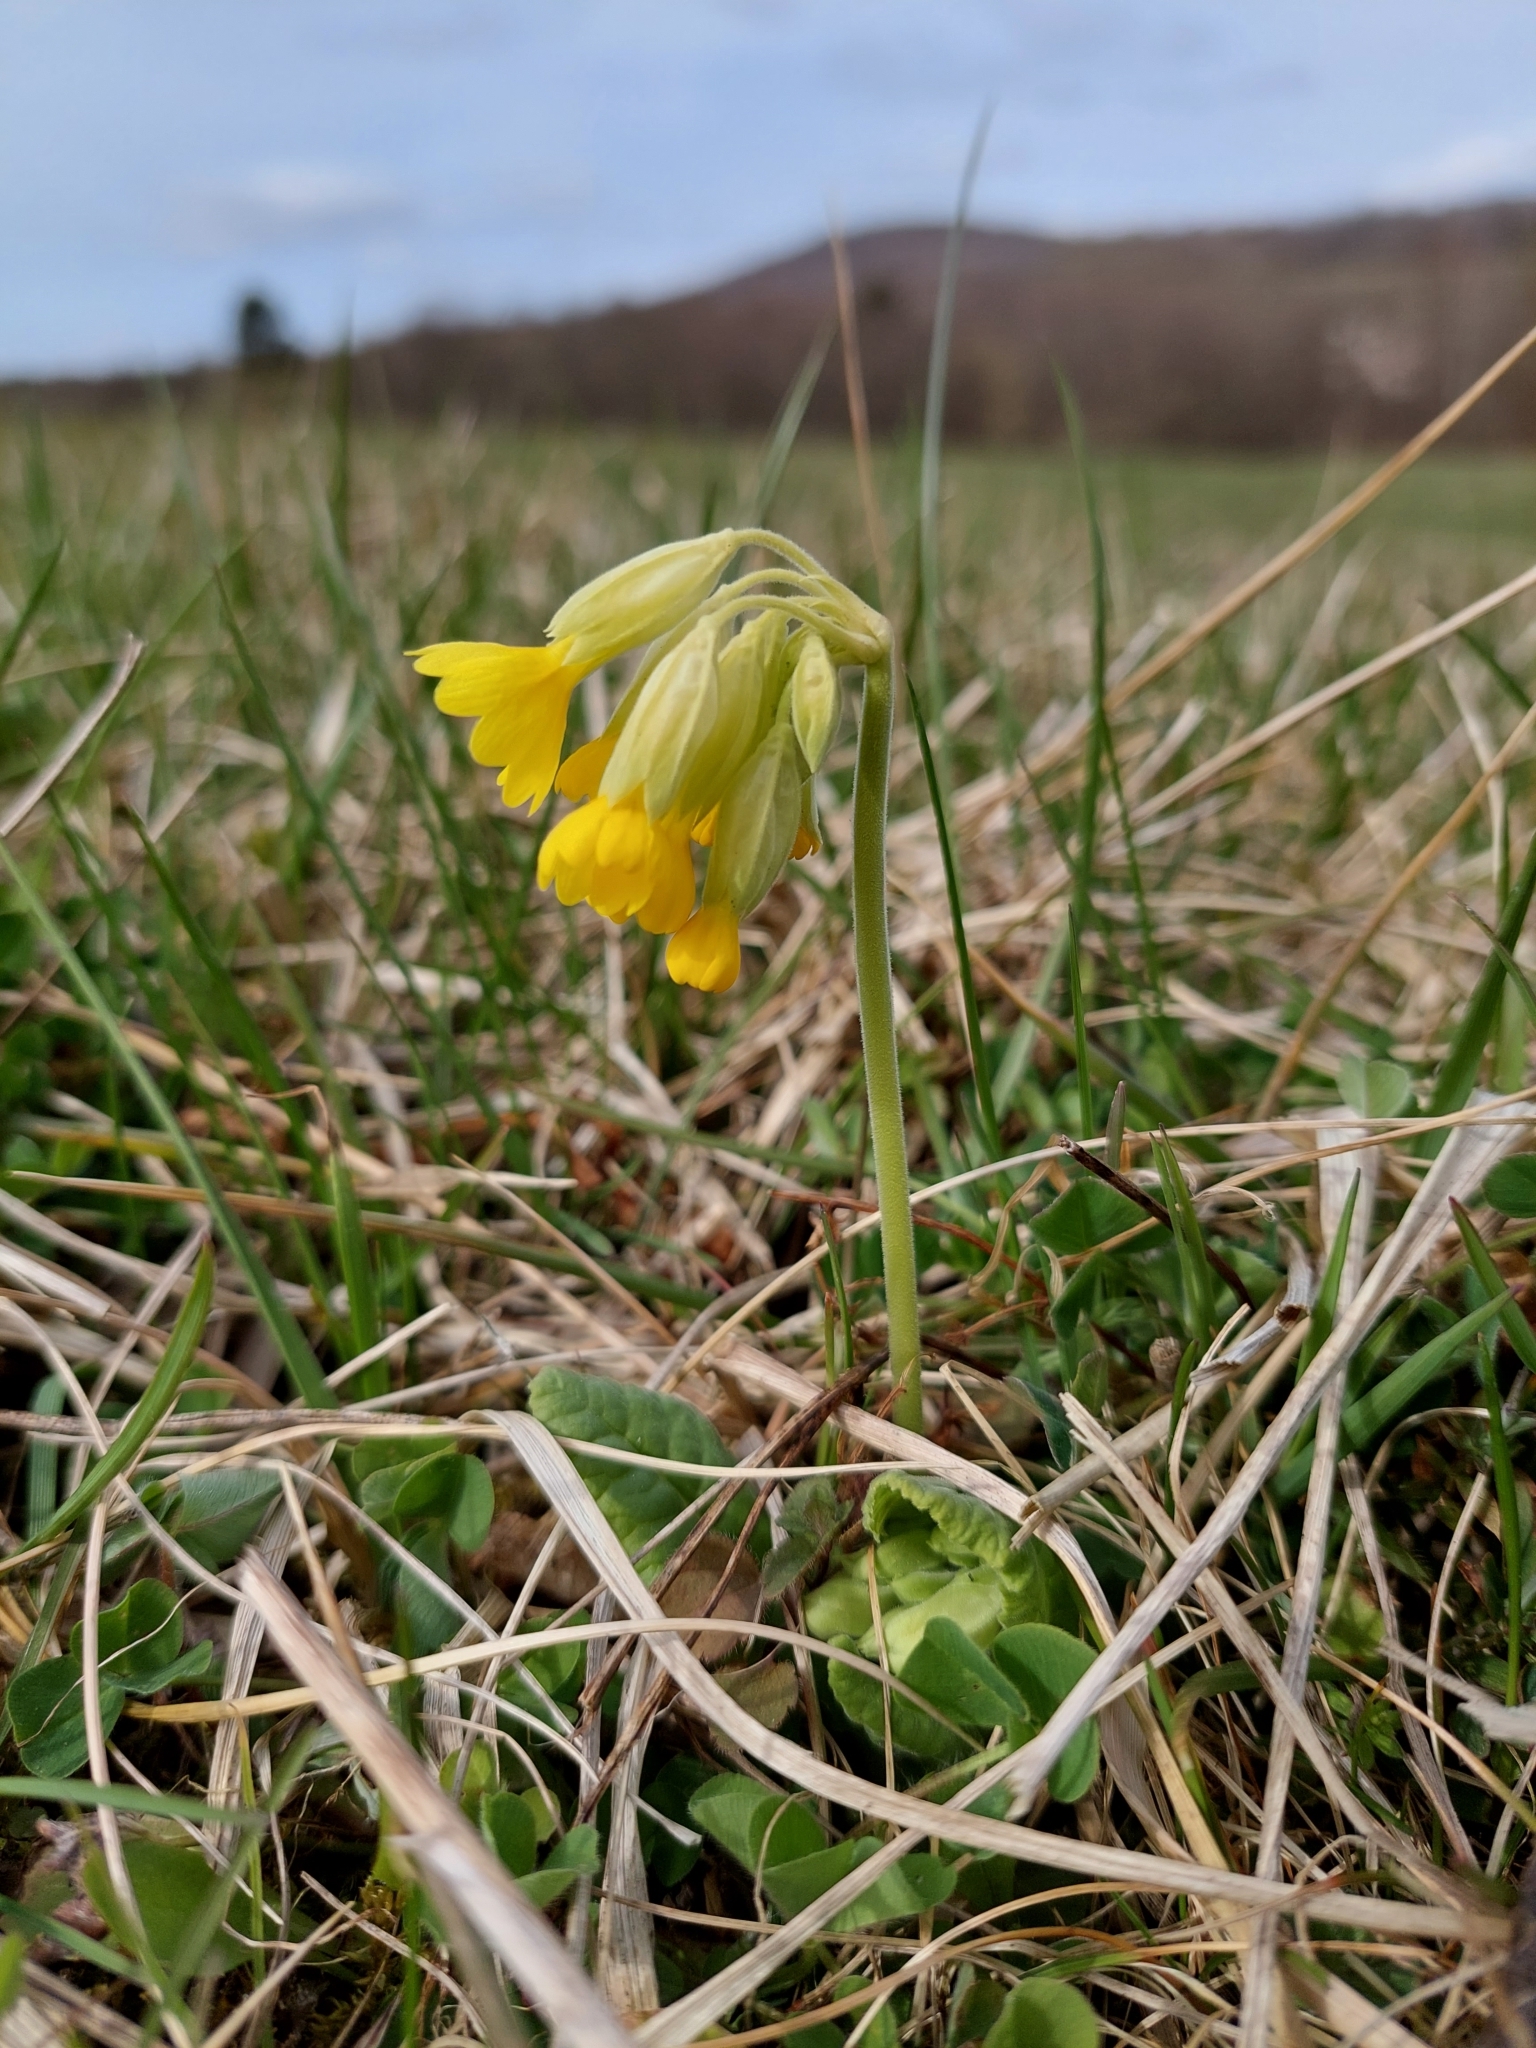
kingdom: Plantae
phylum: Tracheophyta
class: Magnoliopsida
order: Ericales
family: Primulaceae
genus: Primula
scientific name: Primula veris
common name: Cowslip
